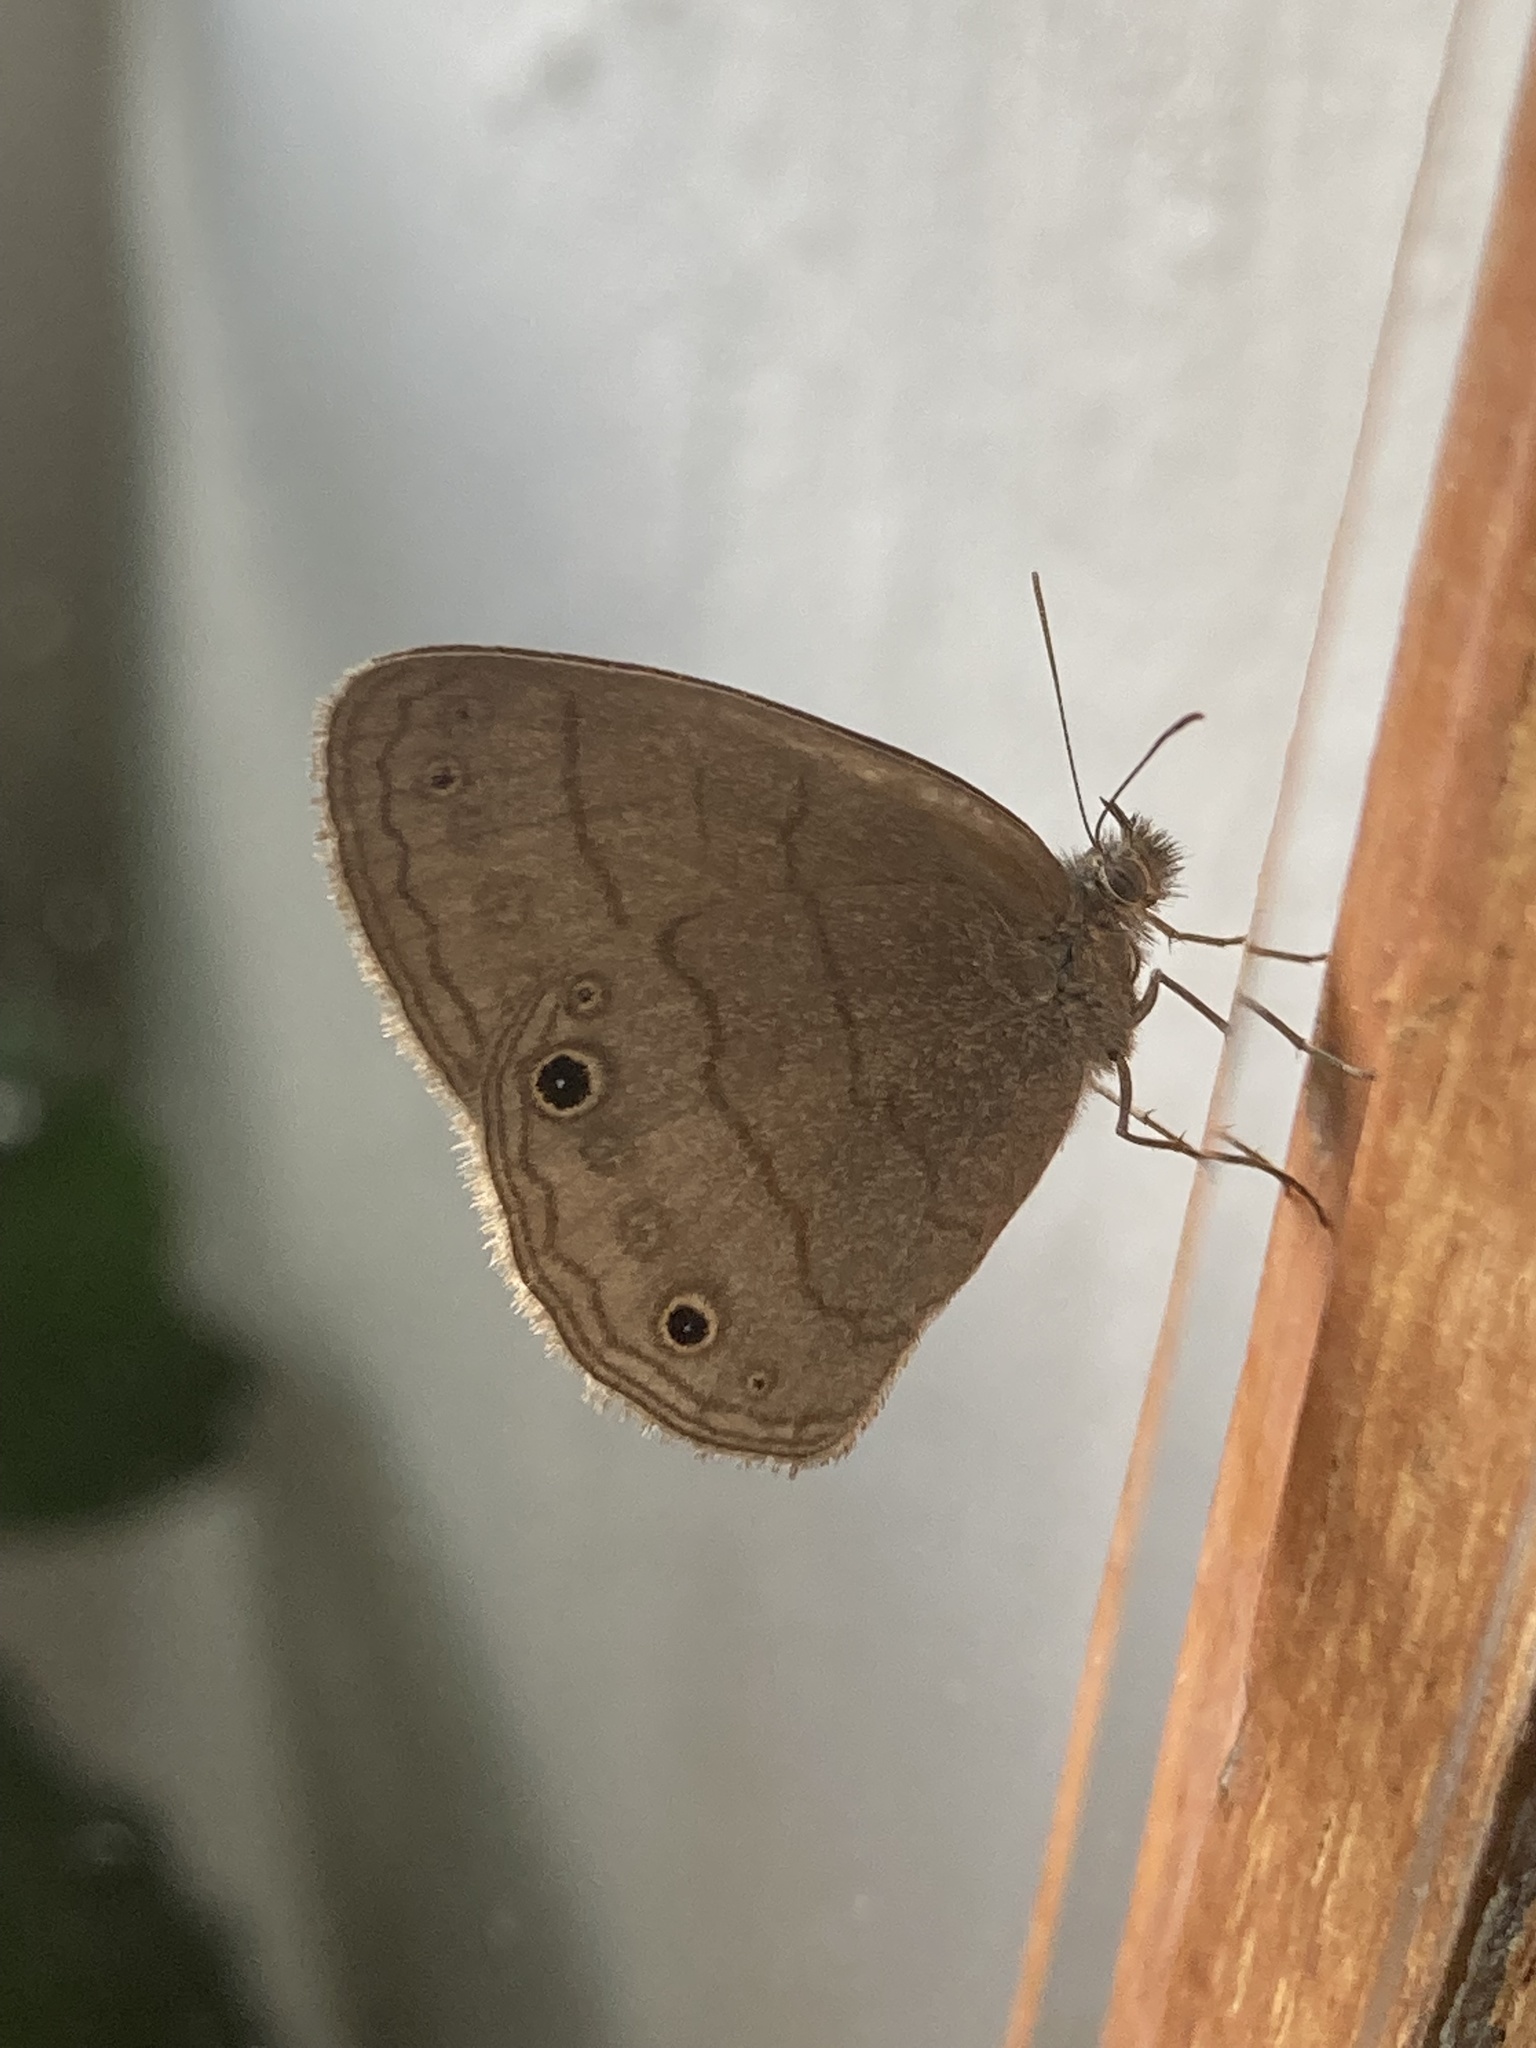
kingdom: Animalia
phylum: Arthropoda
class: Insecta
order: Lepidoptera
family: Nymphalidae
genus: Hermeuptychia
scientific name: Hermeuptychia hermes
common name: Hermes satyr
